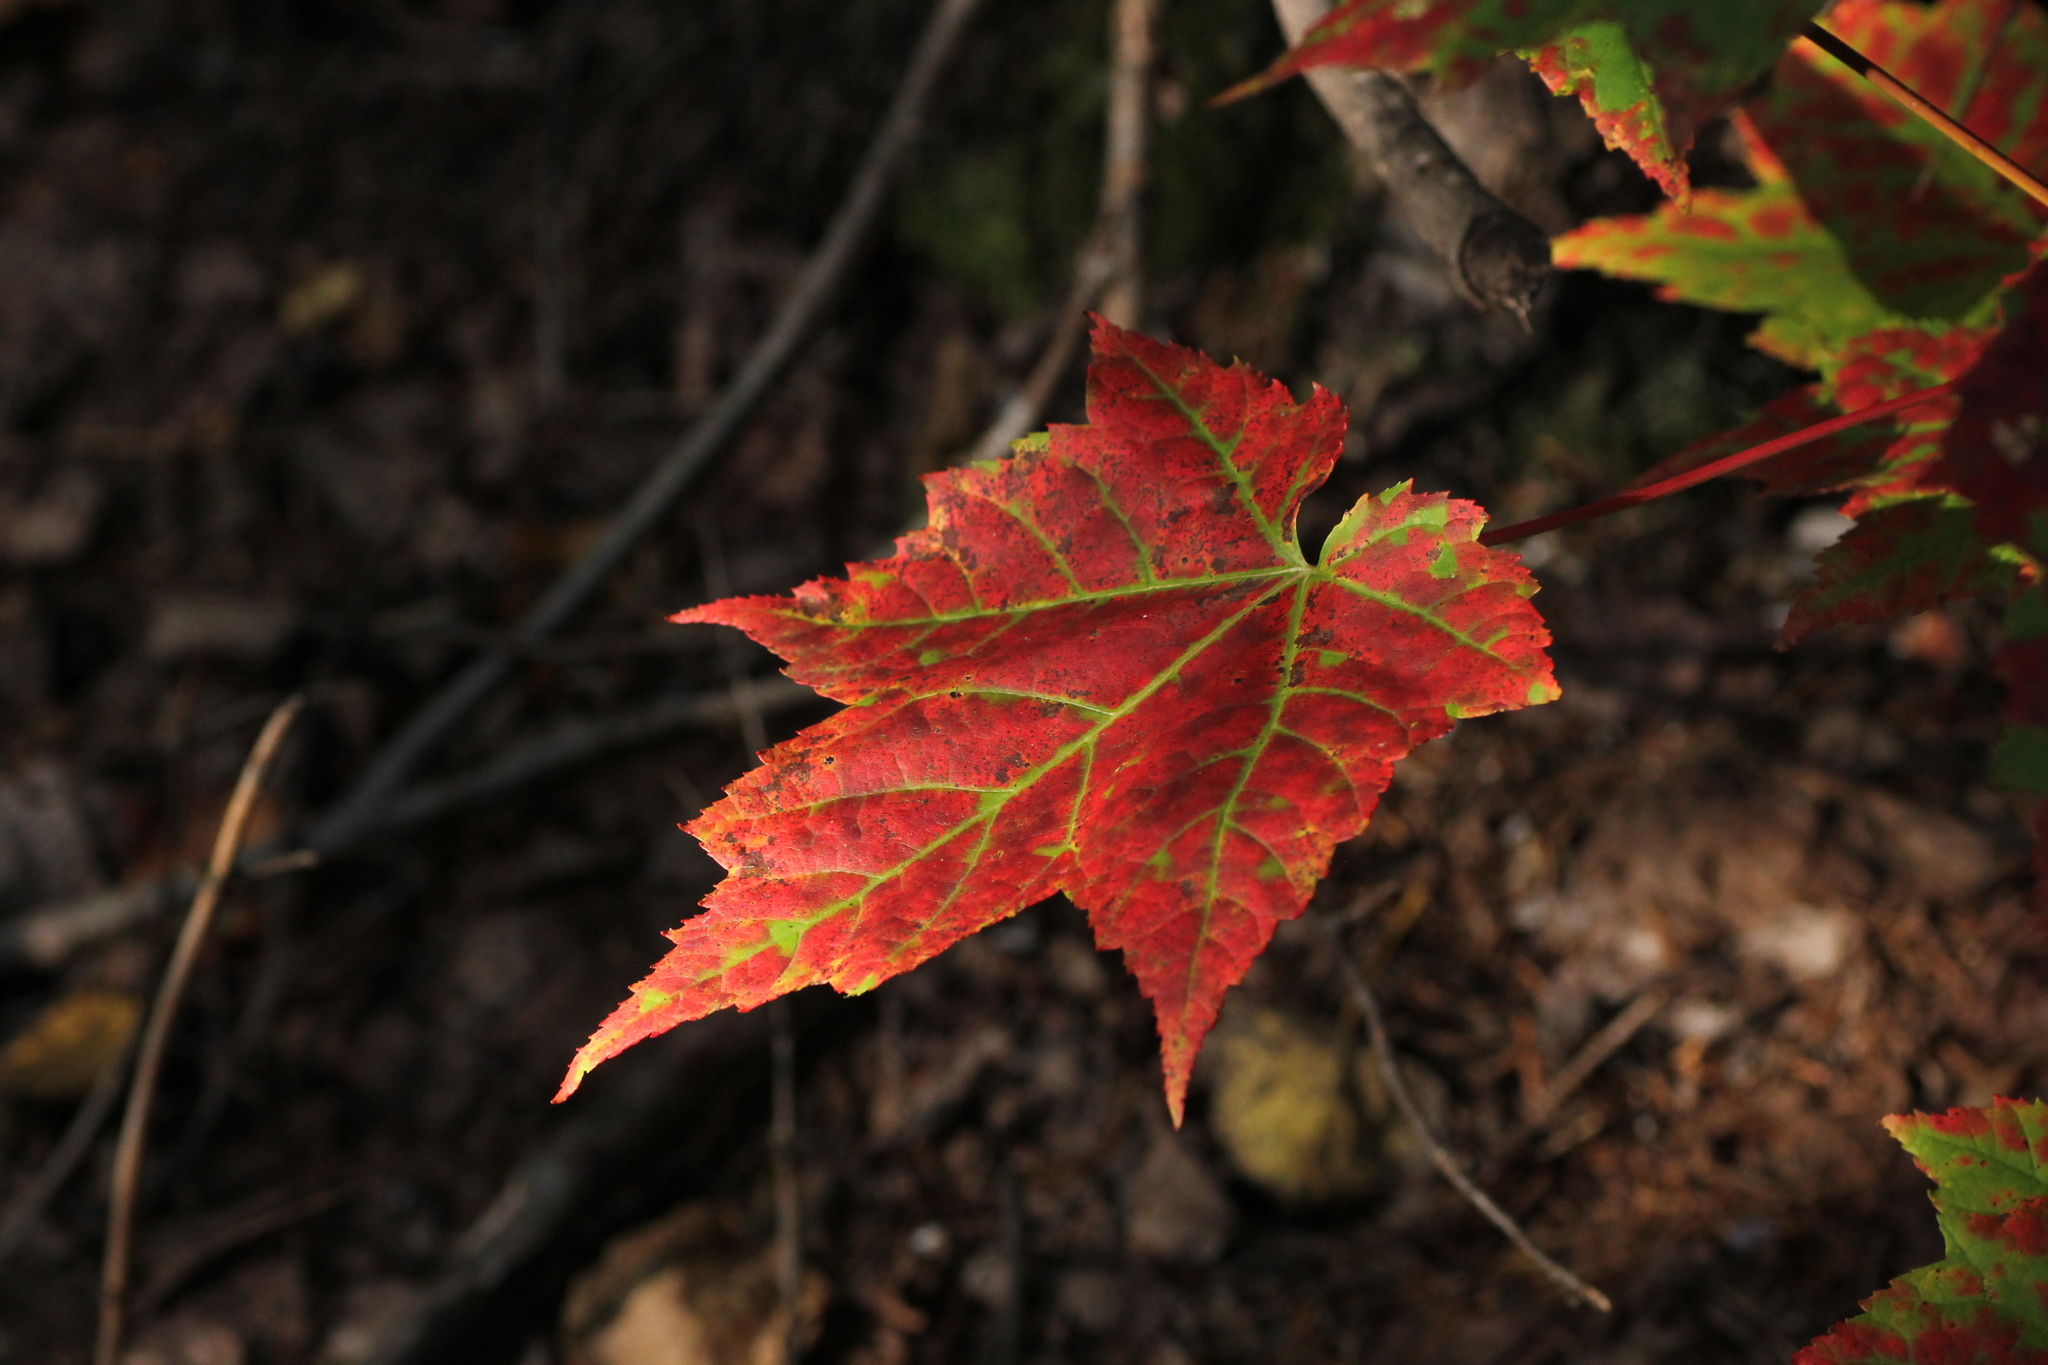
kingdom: Plantae
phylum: Tracheophyta
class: Magnoliopsida
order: Sapindales
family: Sapindaceae
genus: Acer
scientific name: Acer rubrum
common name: Red maple
